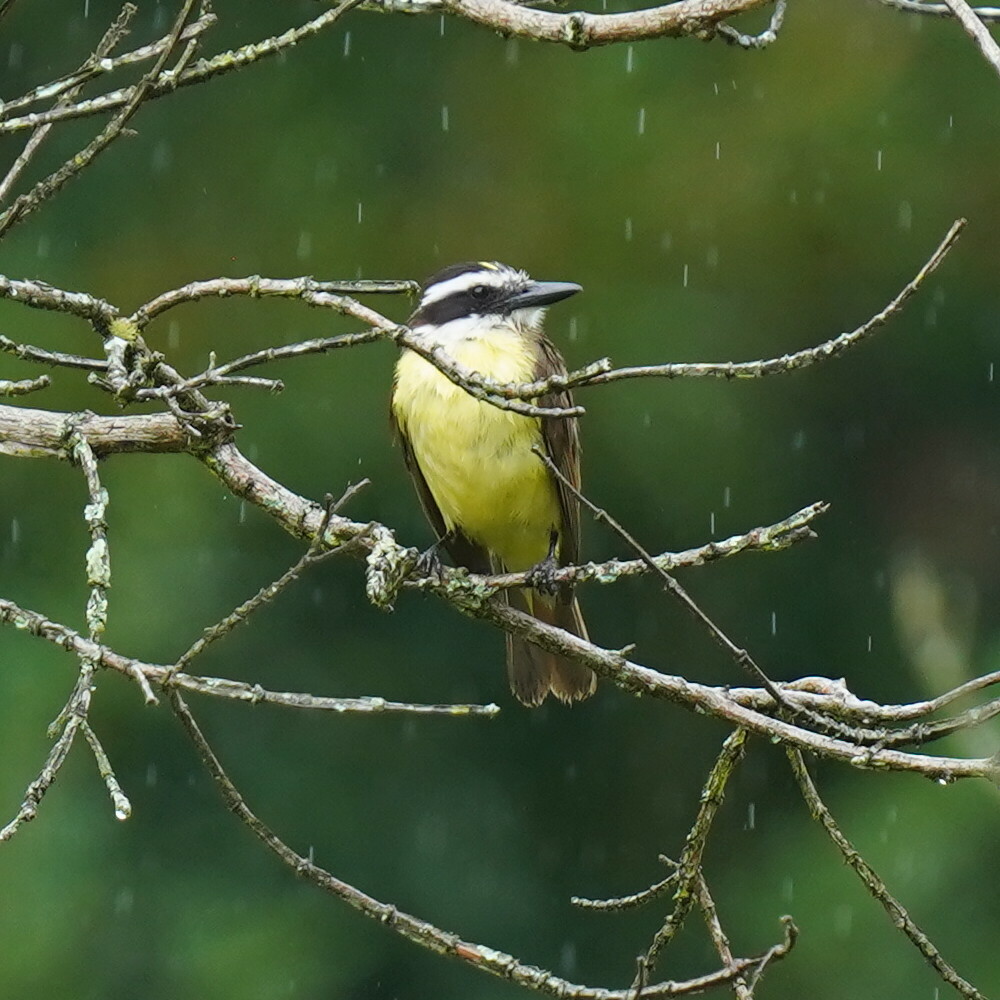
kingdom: Animalia
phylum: Chordata
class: Aves
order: Passeriformes
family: Tyrannidae
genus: Pitangus
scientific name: Pitangus sulphuratus
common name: Great kiskadee
